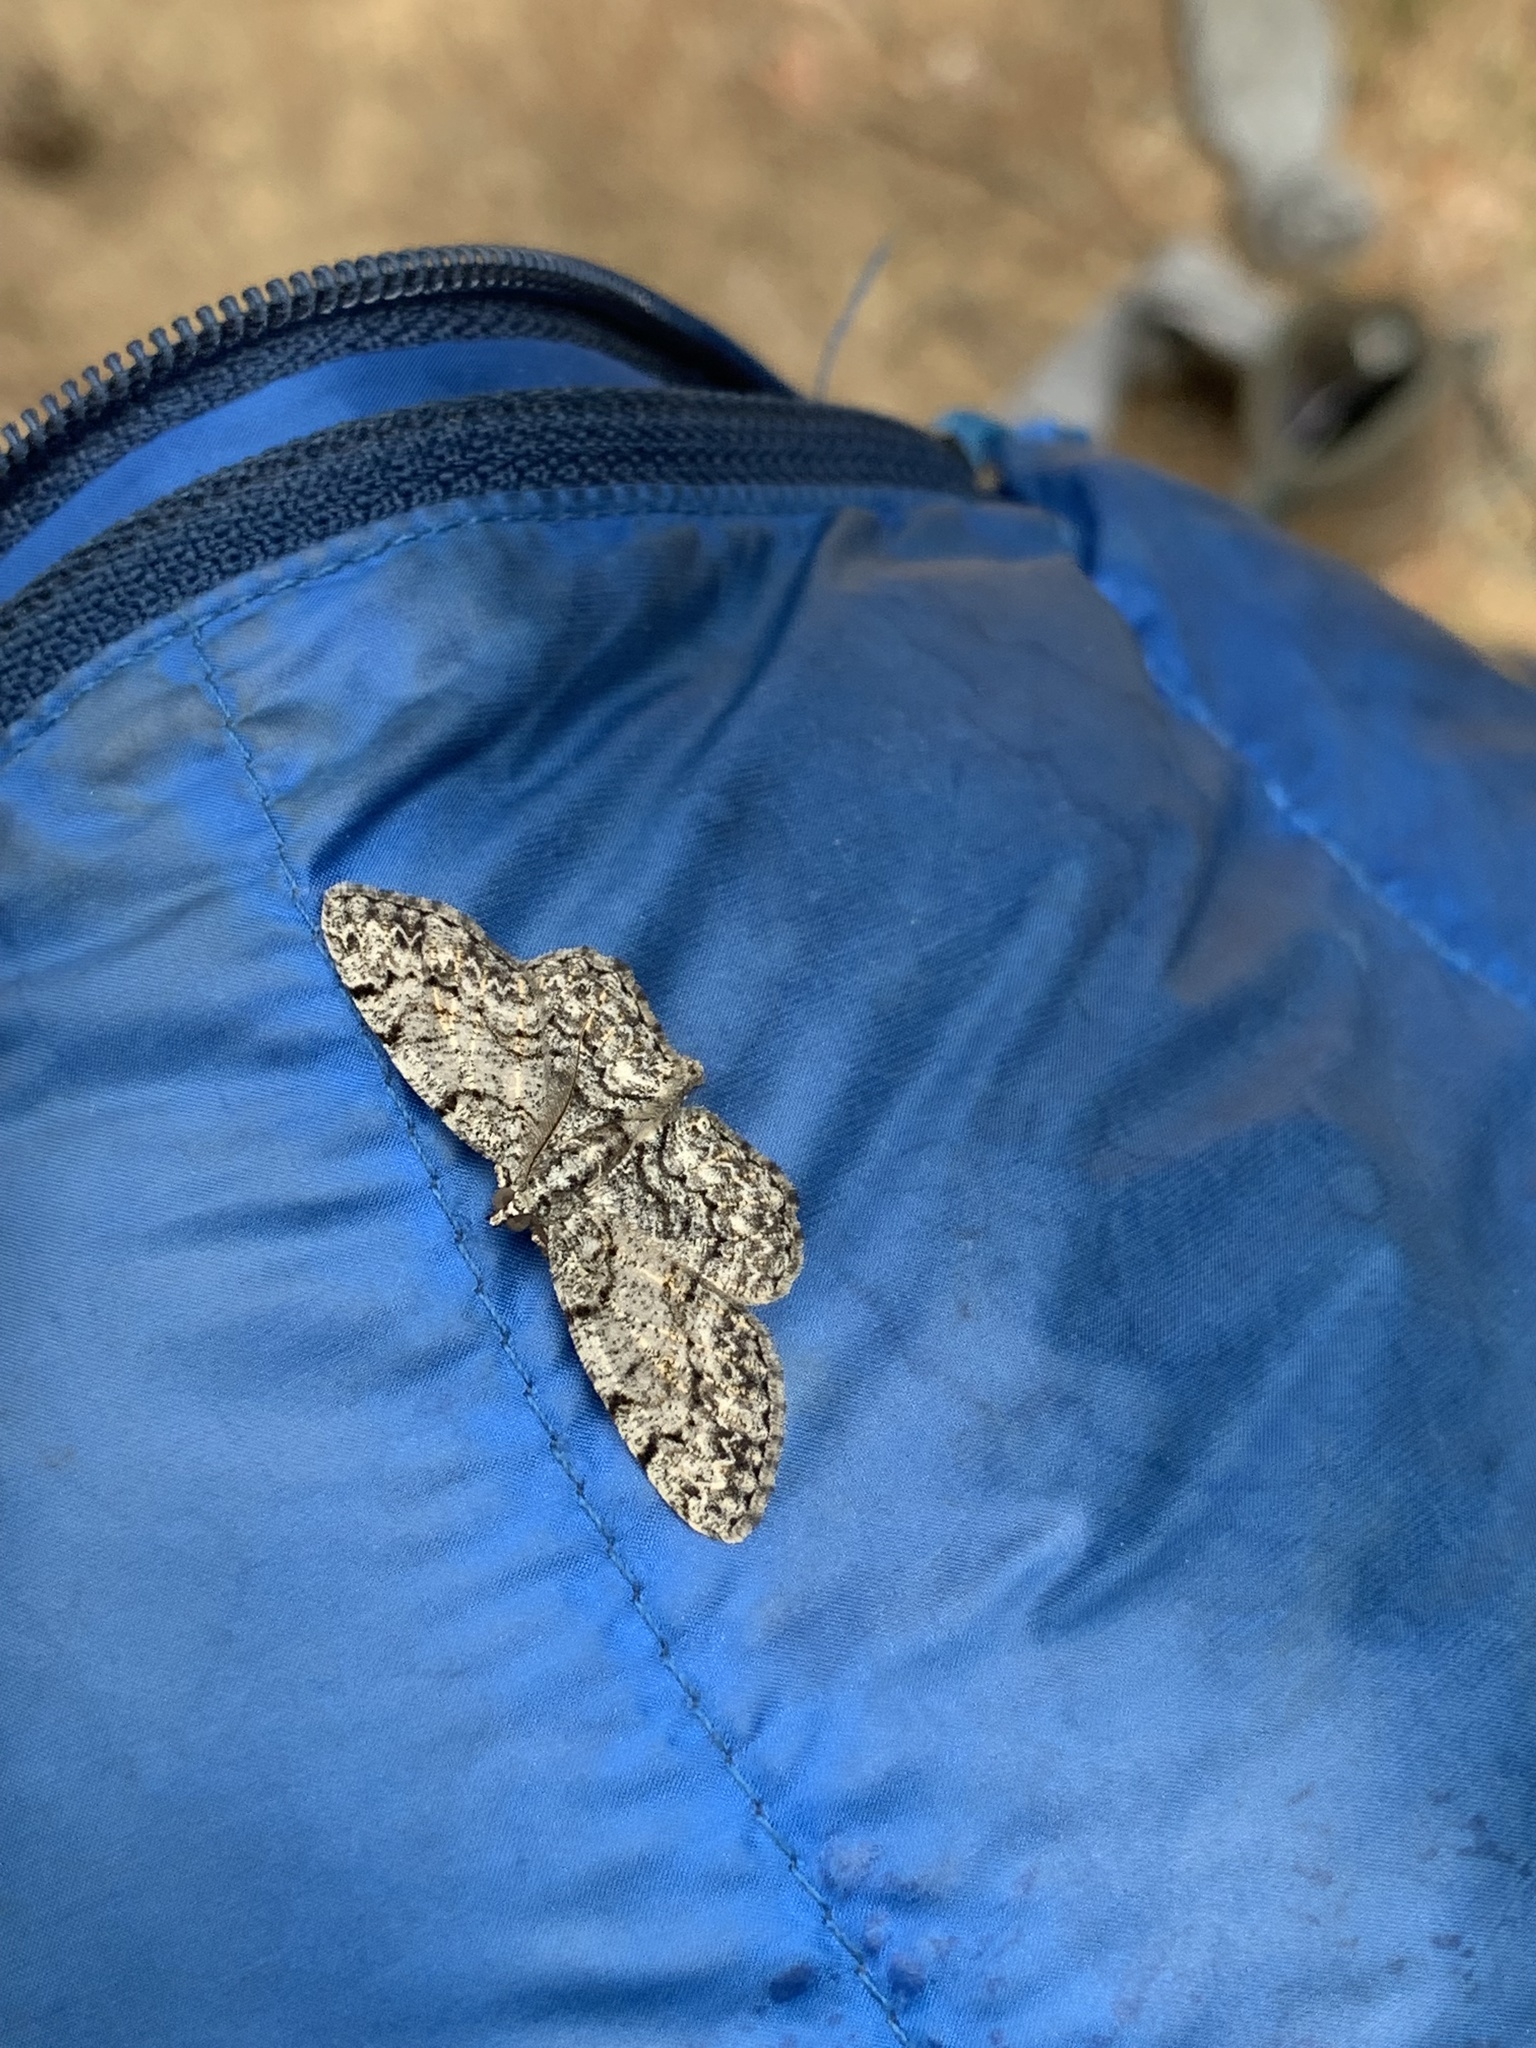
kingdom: Animalia
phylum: Arthropoda
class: Insecta
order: Lepidoptera
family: Geometridae
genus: Protoboarmia
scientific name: Protoboarmia porcelaria
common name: Porcelain gray
